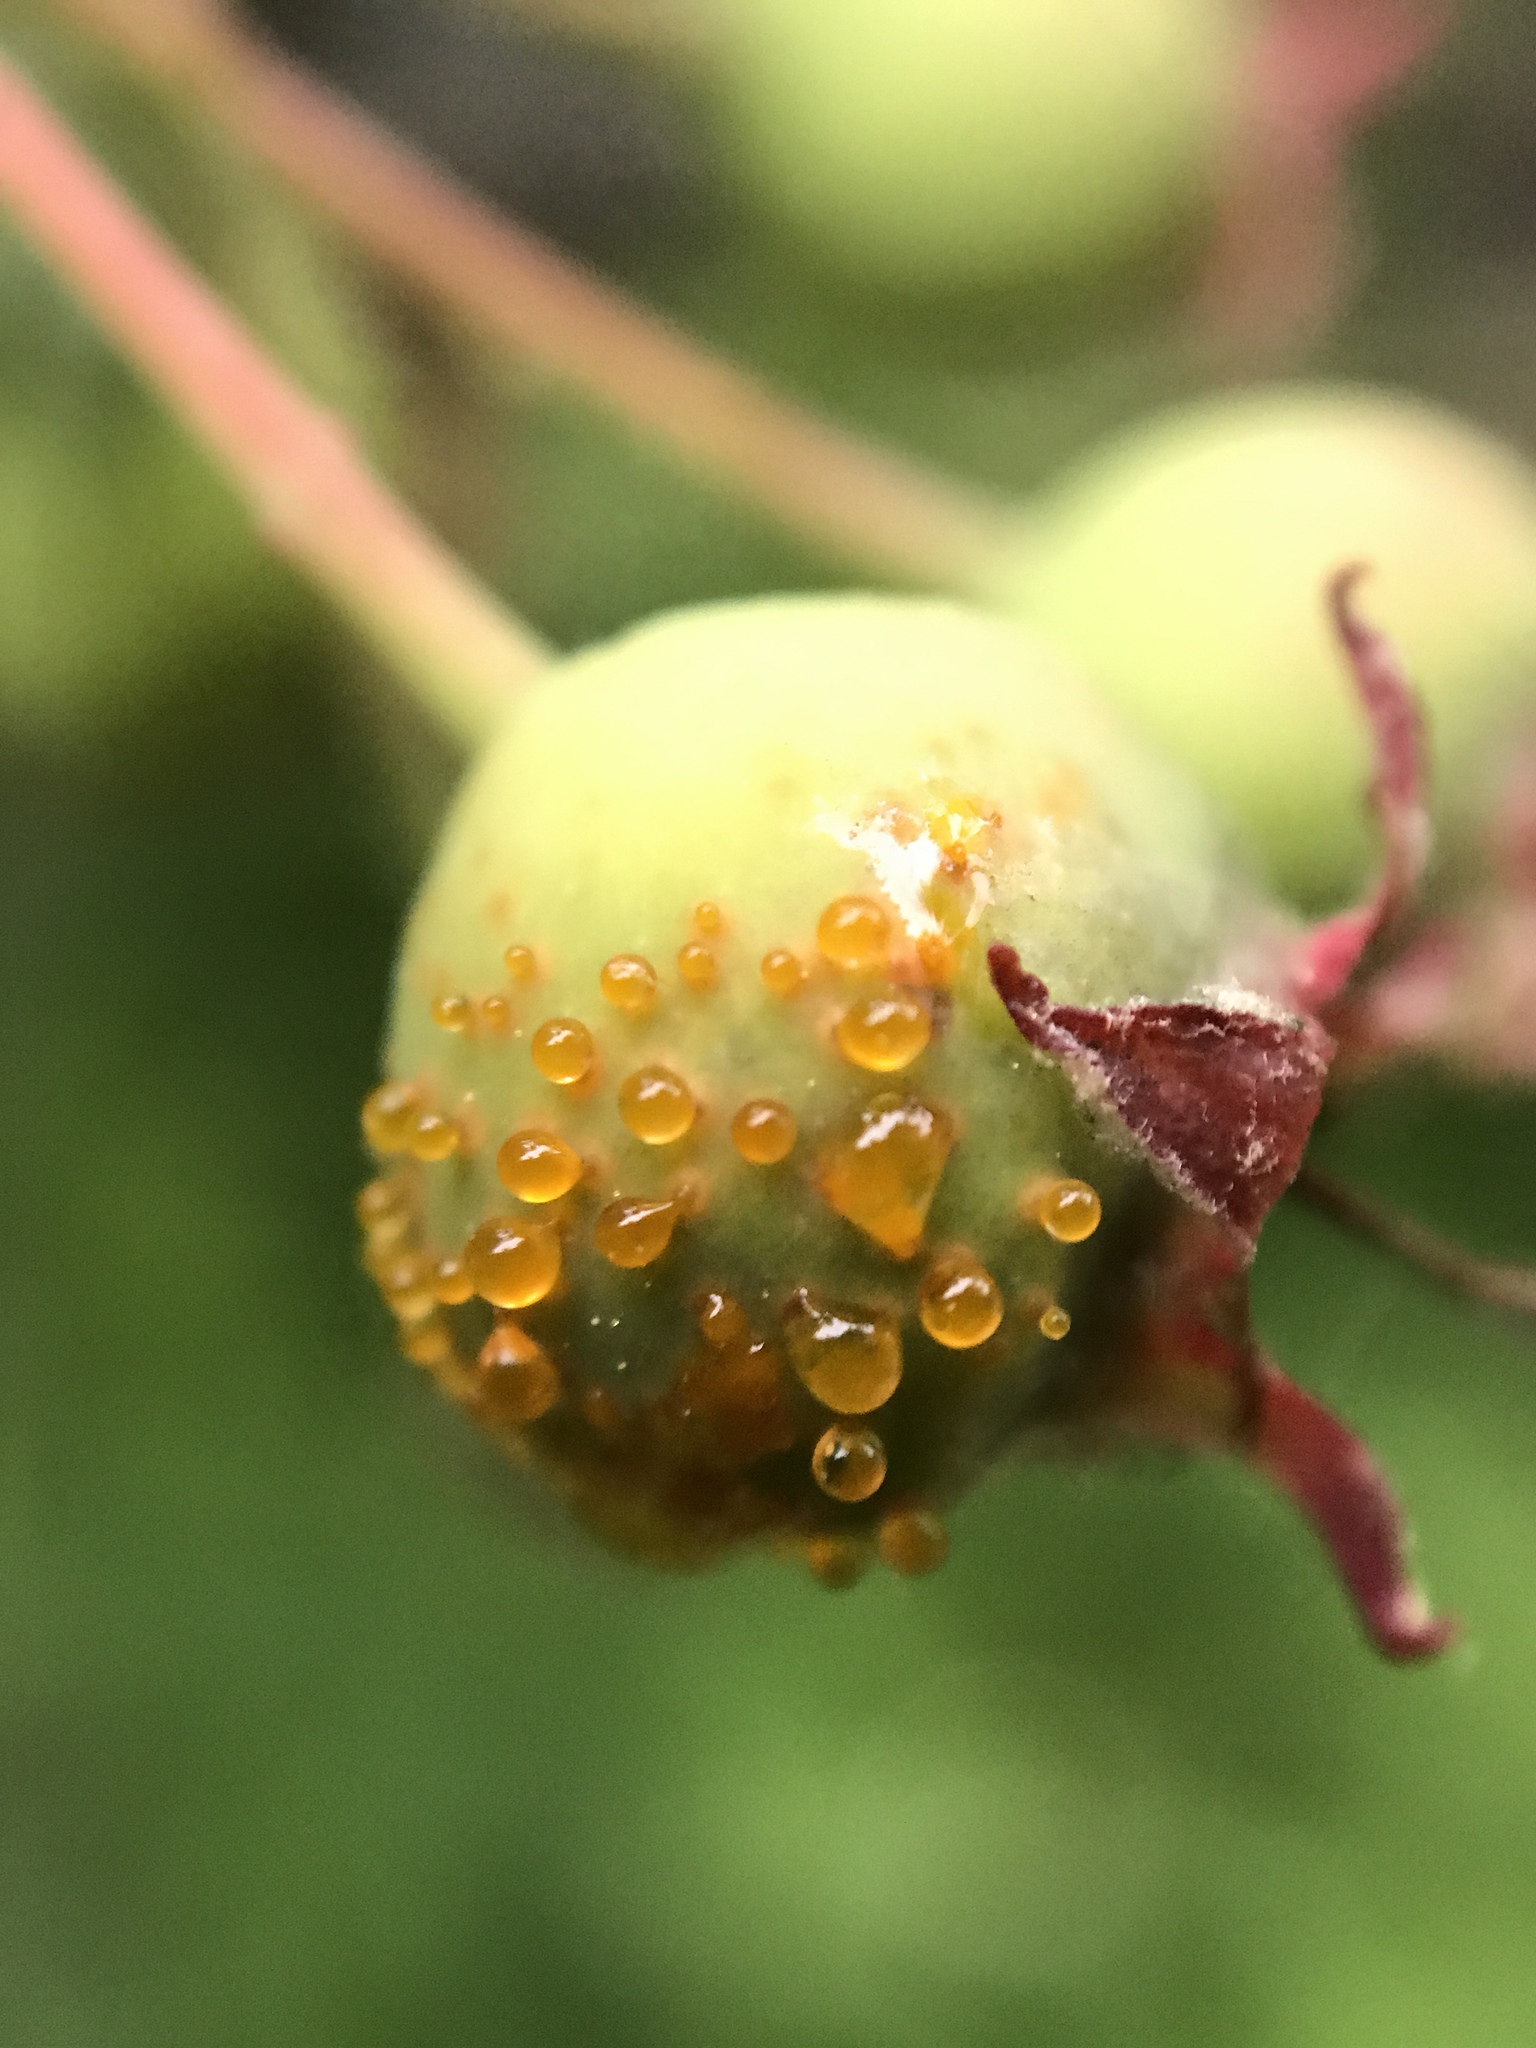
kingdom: Fungi
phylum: Basidiomycota
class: Pucciniomycetes
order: Pucciniales
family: Gymnosporangiaceae
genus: Gymnosporangium
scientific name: Gymnosporangium globosum
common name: Juniper-hawthorn rust
